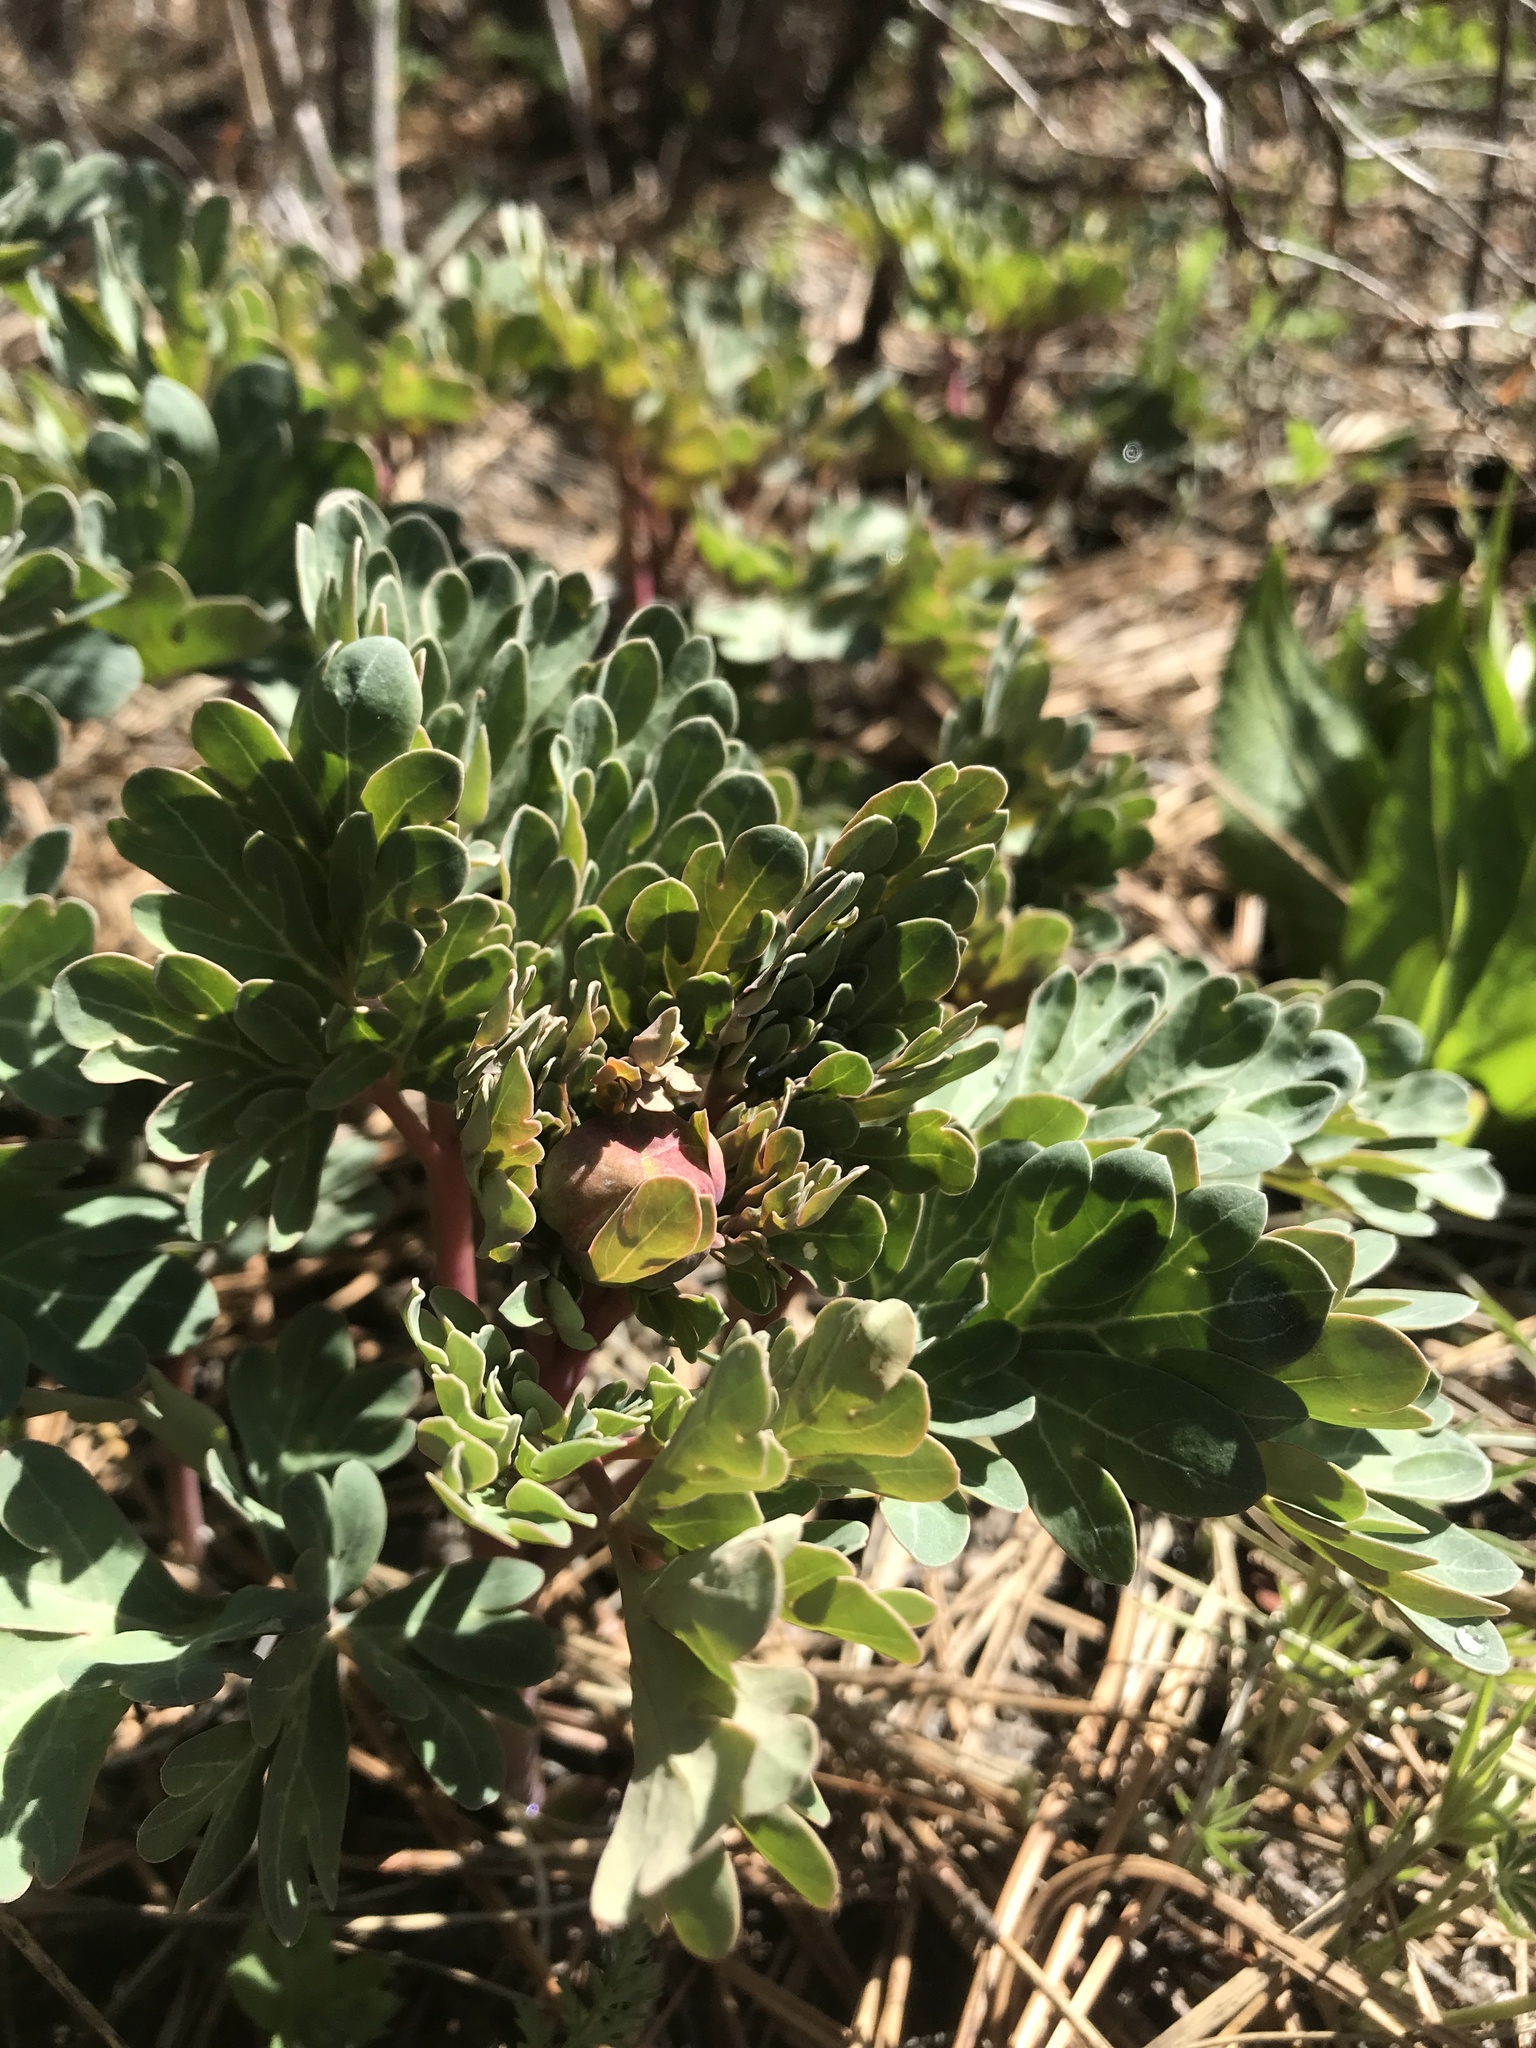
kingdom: Plantae
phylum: Tracheophyta
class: Magnoliopsida
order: Saxifragales
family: Paeoniaceae
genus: Paeonia
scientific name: Paeonia brownii
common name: Brown's peony
